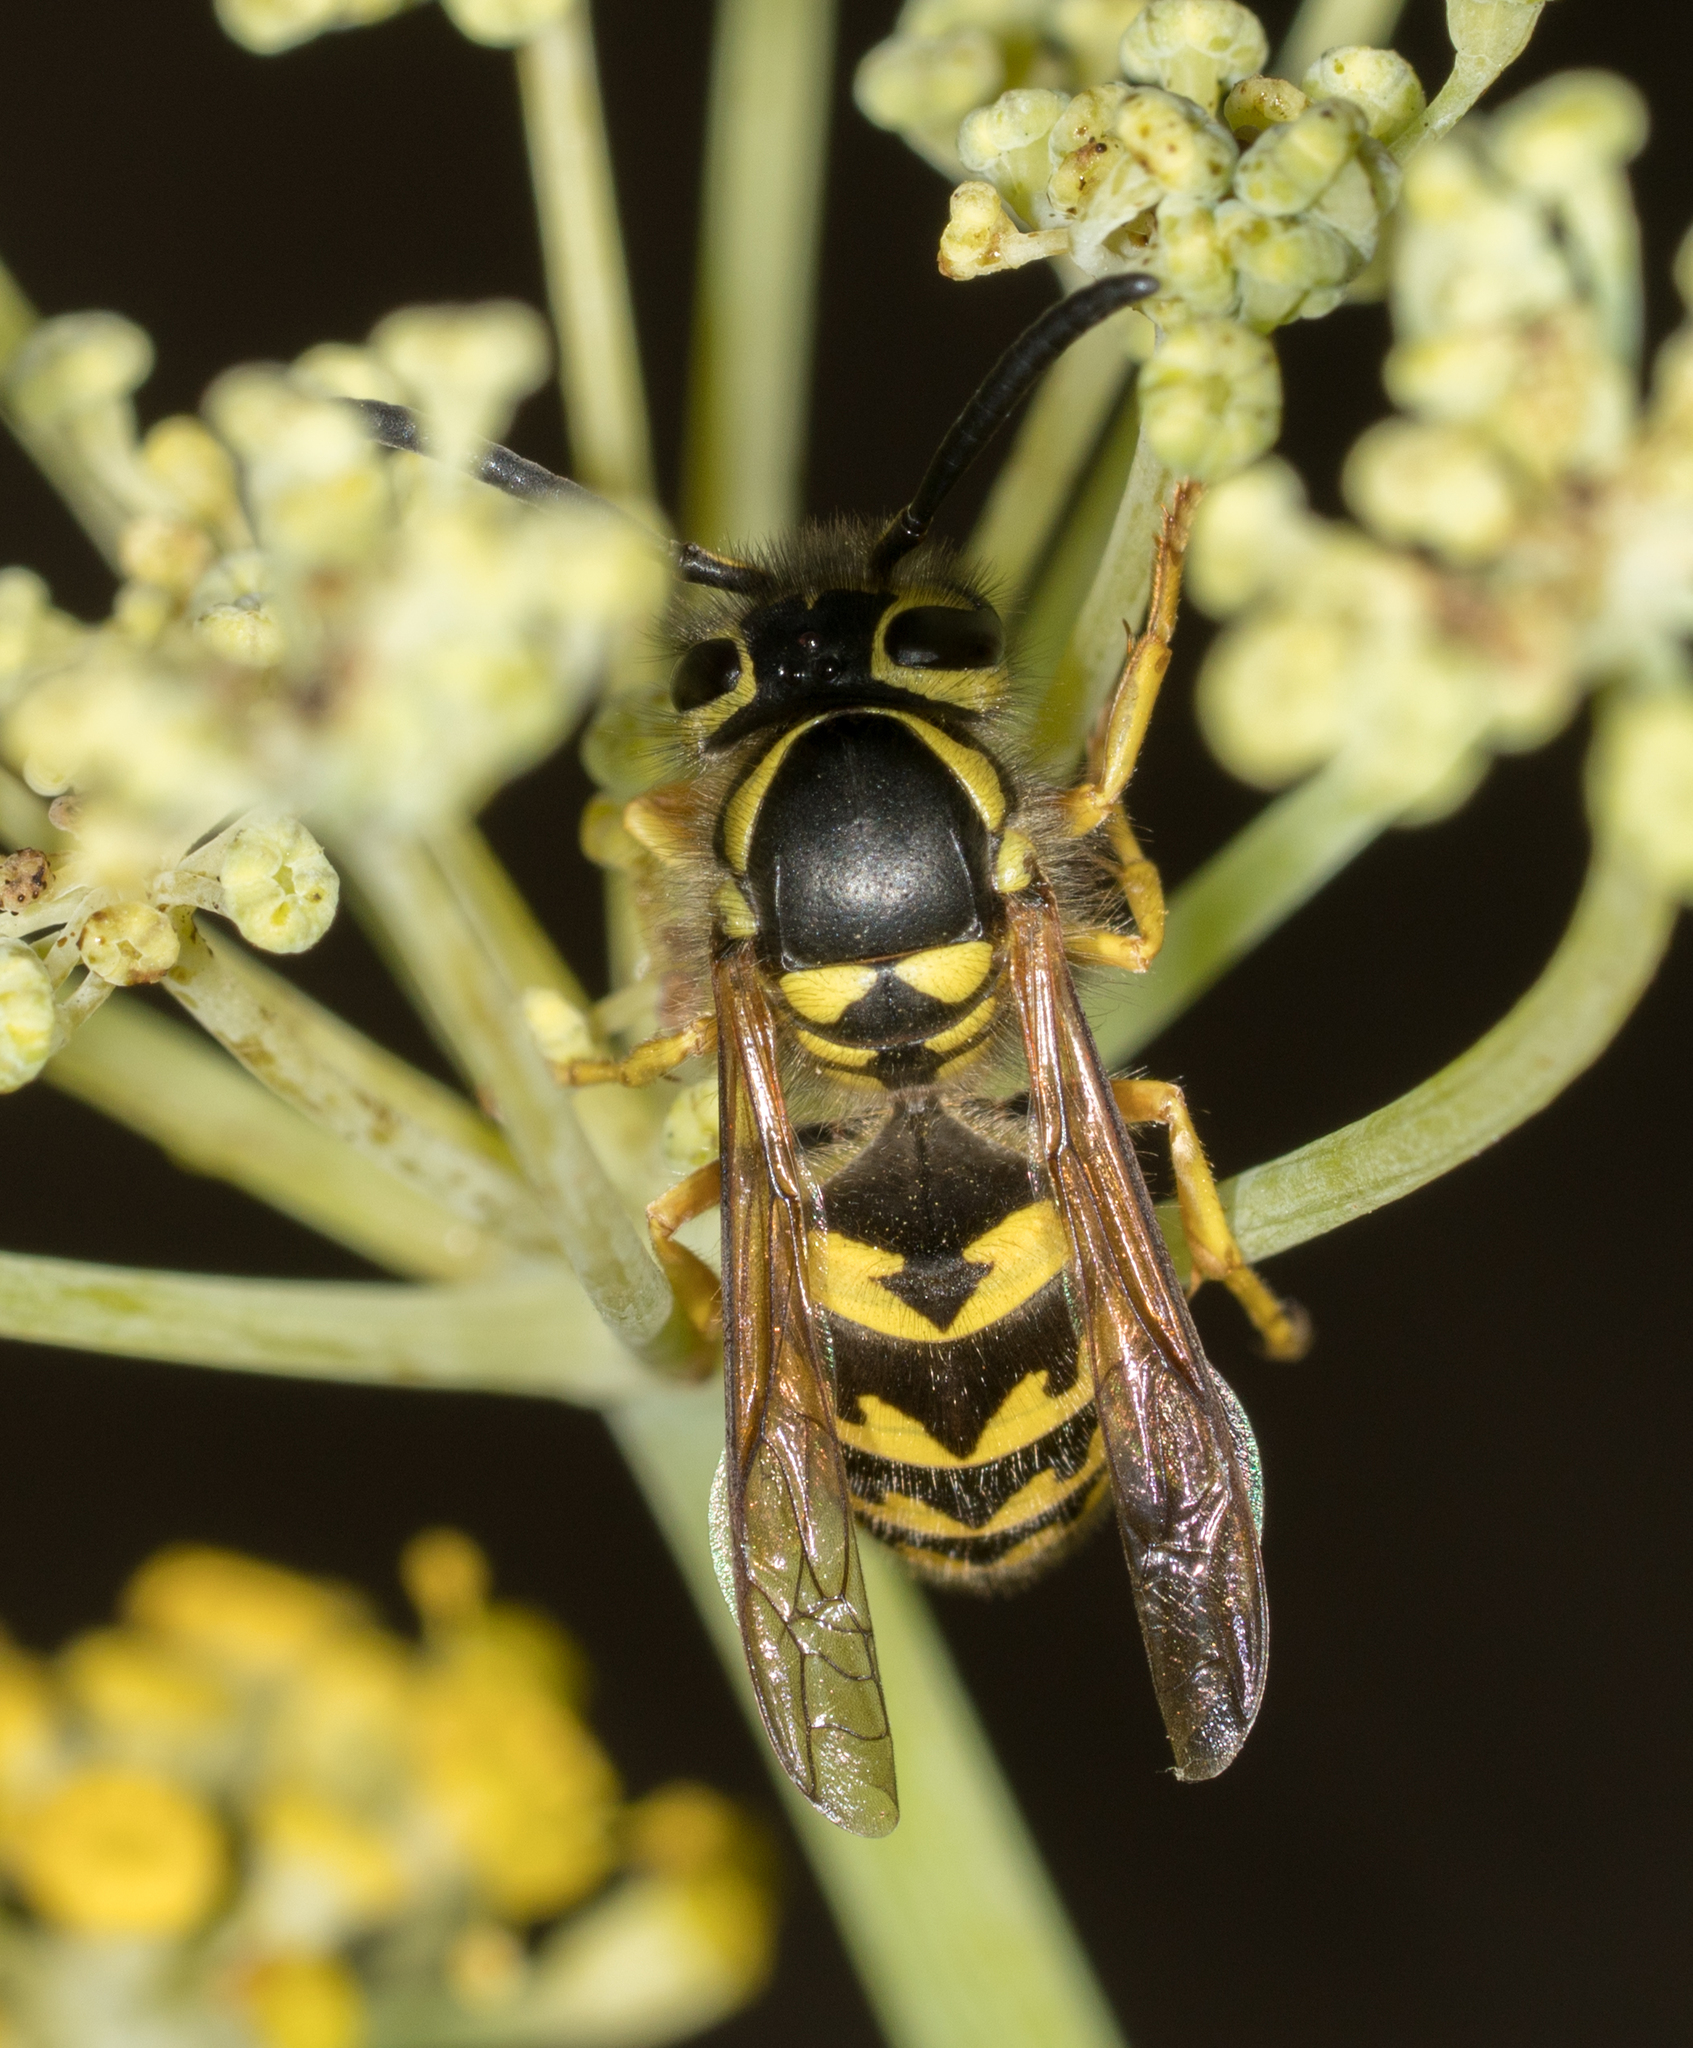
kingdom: Animalia
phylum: Arthropoda
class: Insecta
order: Hymenoptera
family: Vespidae
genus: Vespula
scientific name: Vespula pensylvanica
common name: Western yellowjacket
